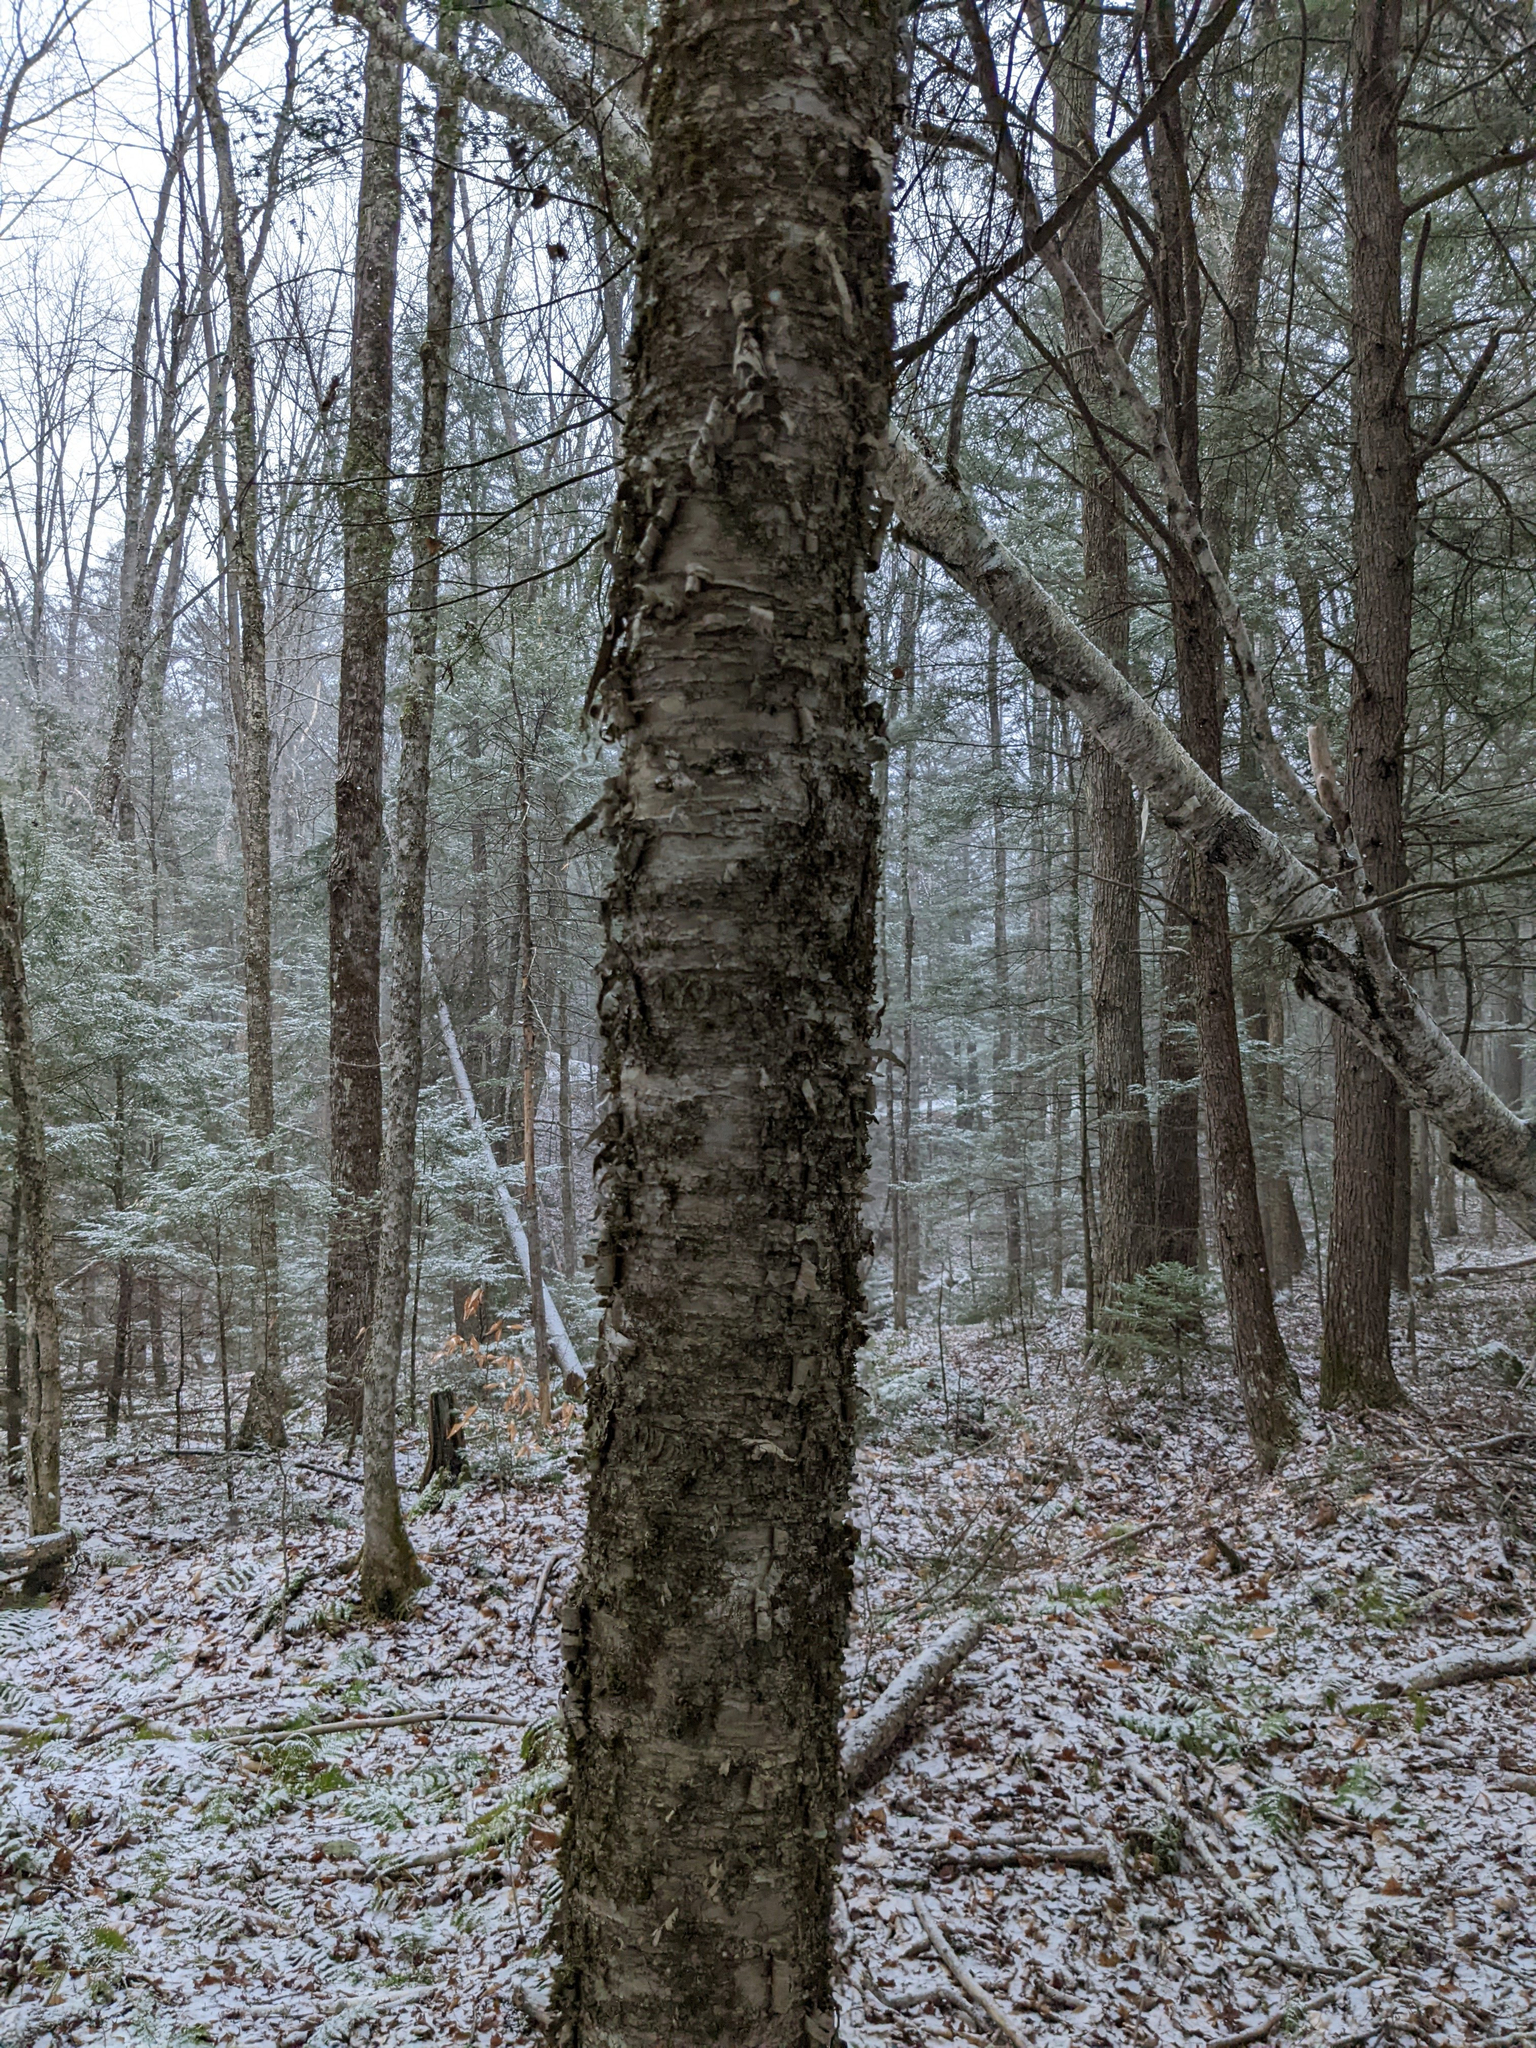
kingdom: Plantae
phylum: Tracheophyta
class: Magnoliopsida
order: Fagales
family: Betulaceae
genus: Betula
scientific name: Betula alleghaniensis
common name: Yellow birch
